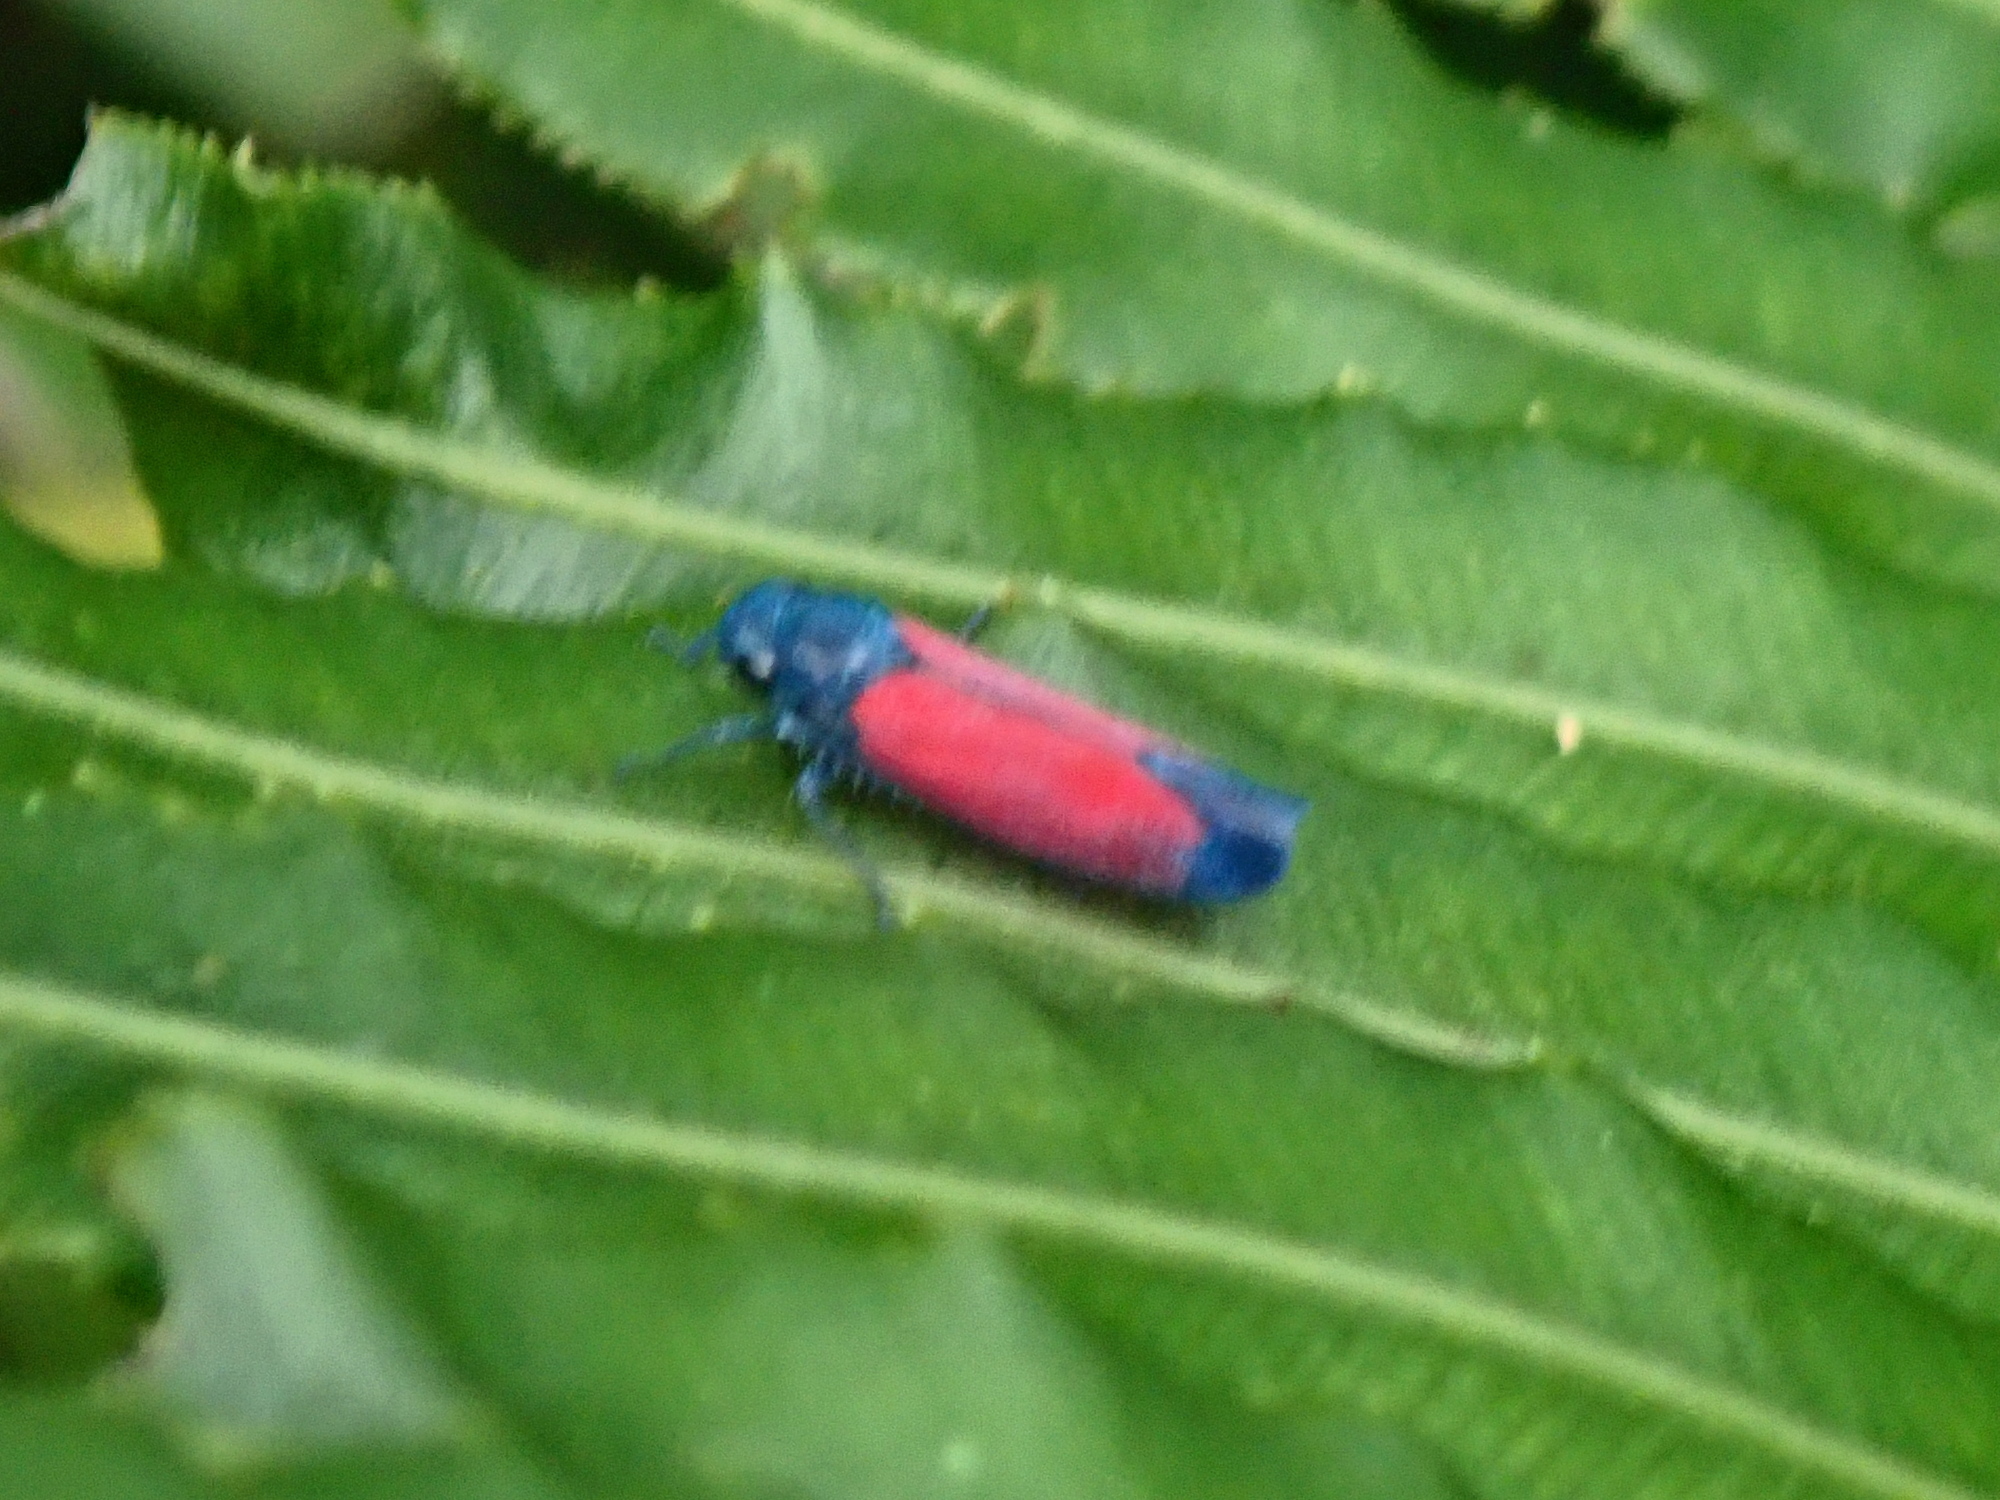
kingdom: Animalia
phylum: Arthropoda
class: Insecta
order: Hemiptera
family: Cicadellidae
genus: Cardioscarta
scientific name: Cardioscarta flavifrons
